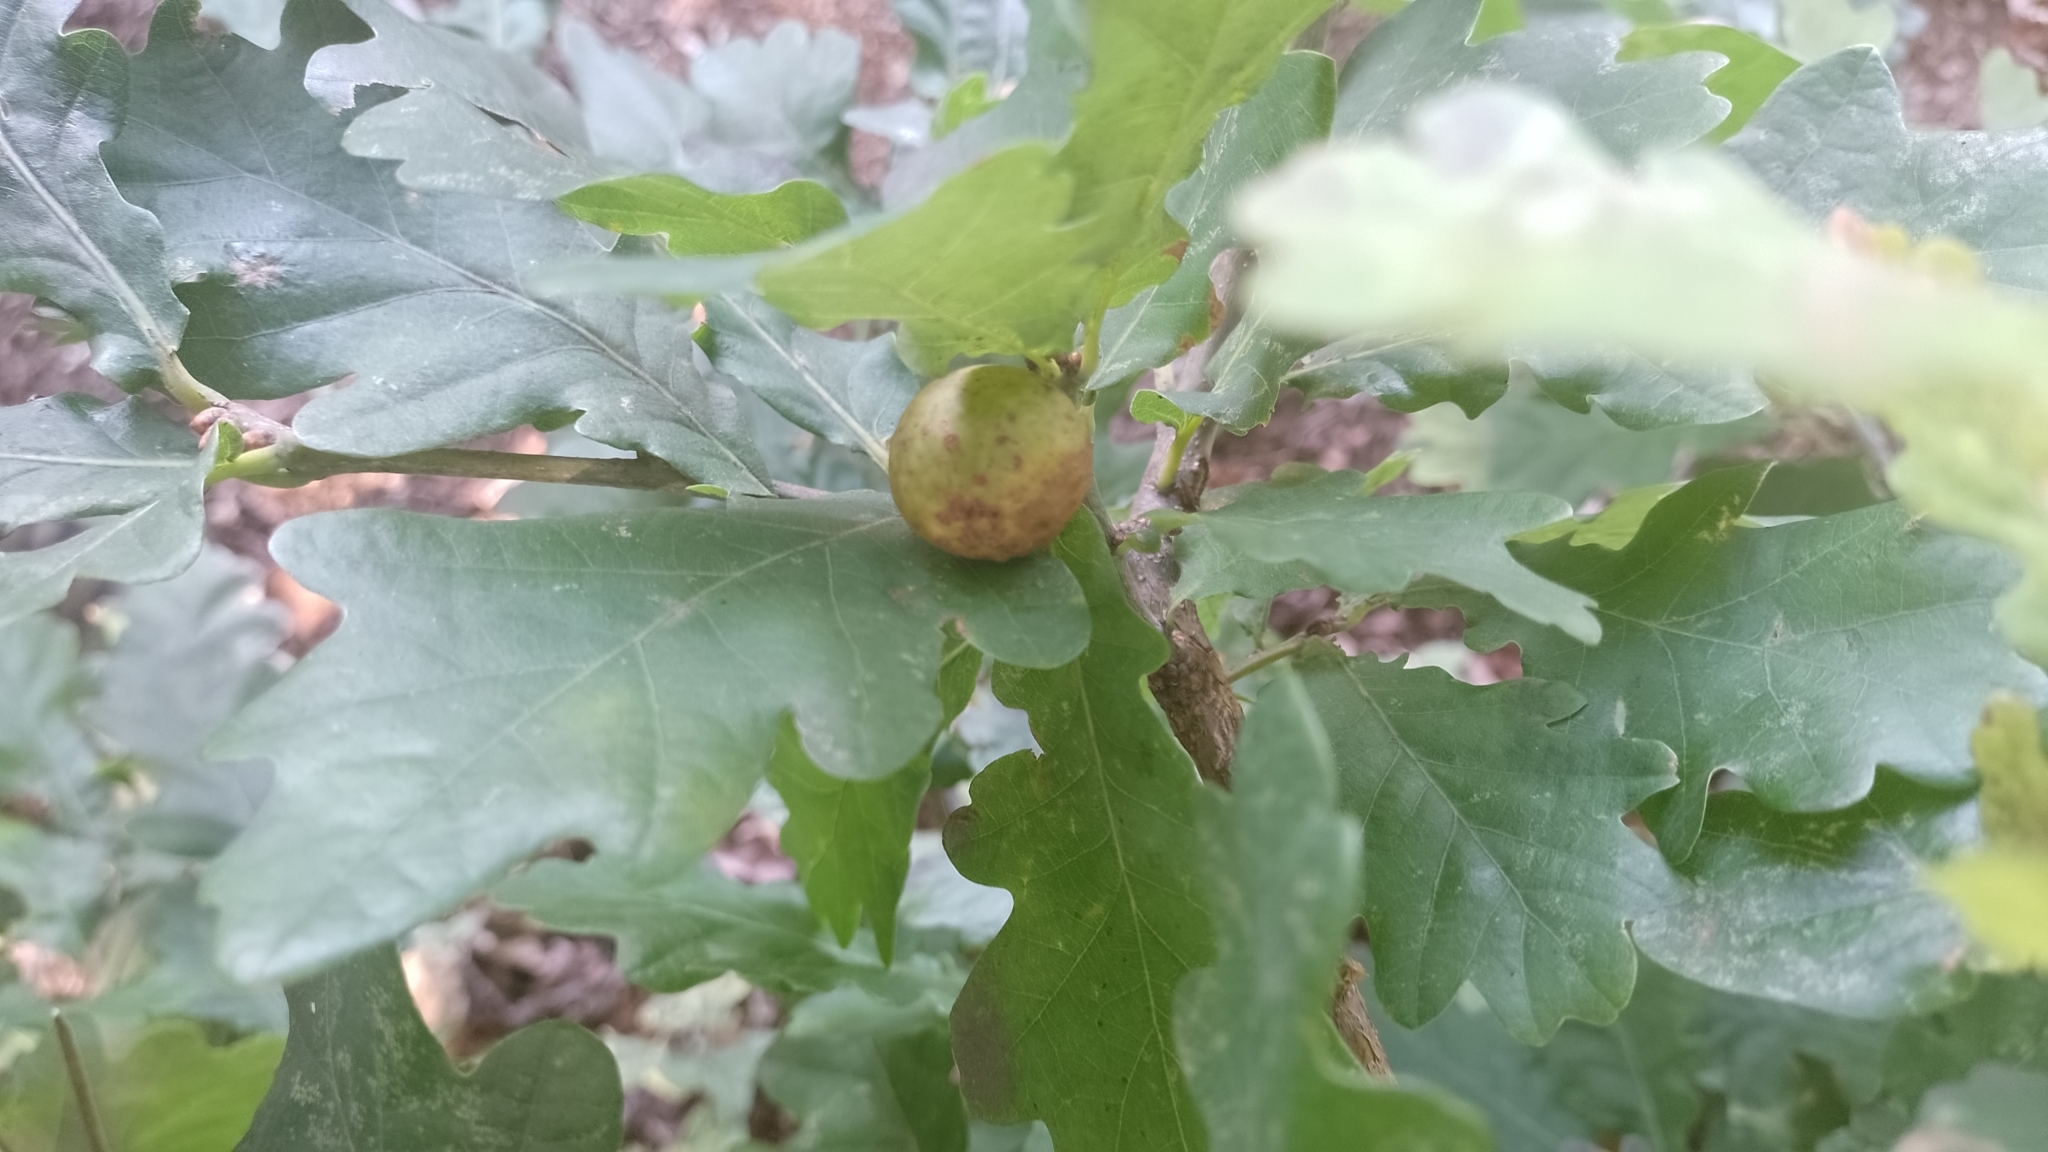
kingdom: Animalia
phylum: Arthropoda
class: Insecta
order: Hymenoptera
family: Cynipidae
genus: Andricus
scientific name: Andricus kollari
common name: Marble gall
